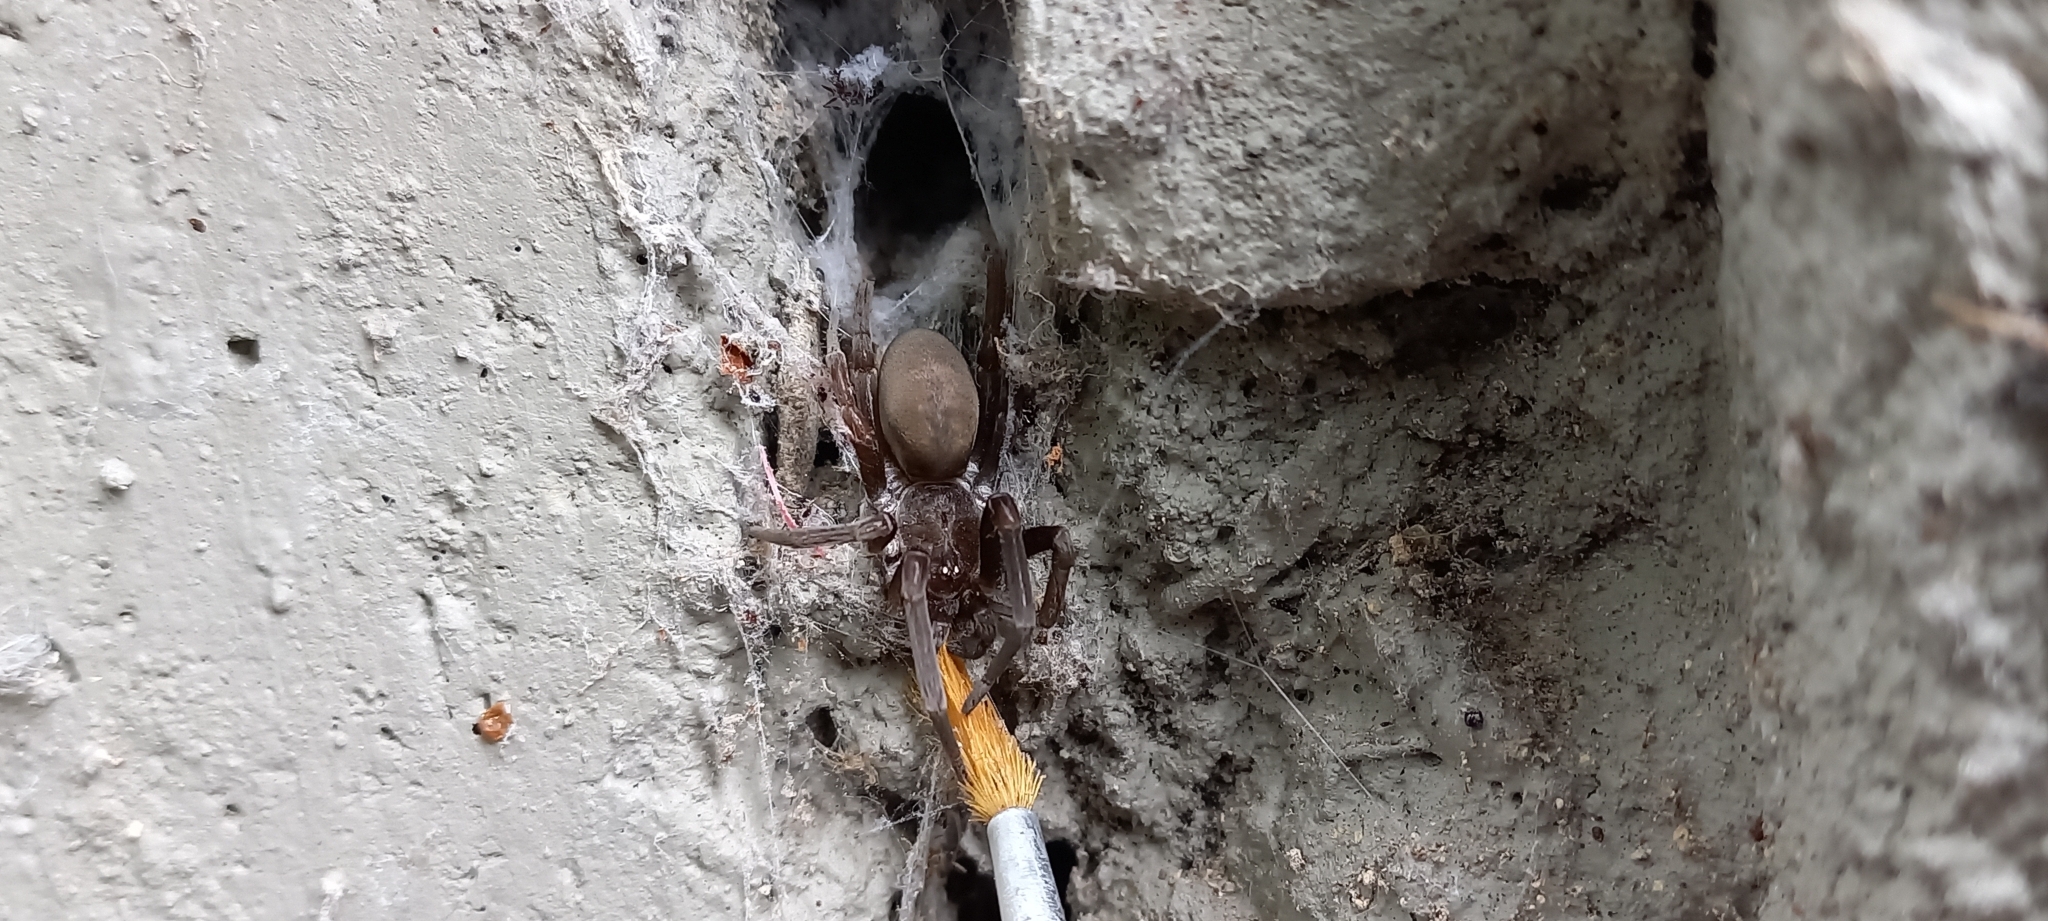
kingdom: Animalia
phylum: Arthropoda
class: Arachnida
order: Araneae
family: Filistatidae
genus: Kukulcania
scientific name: Kukulcania hibernalis
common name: Crevice weaver
